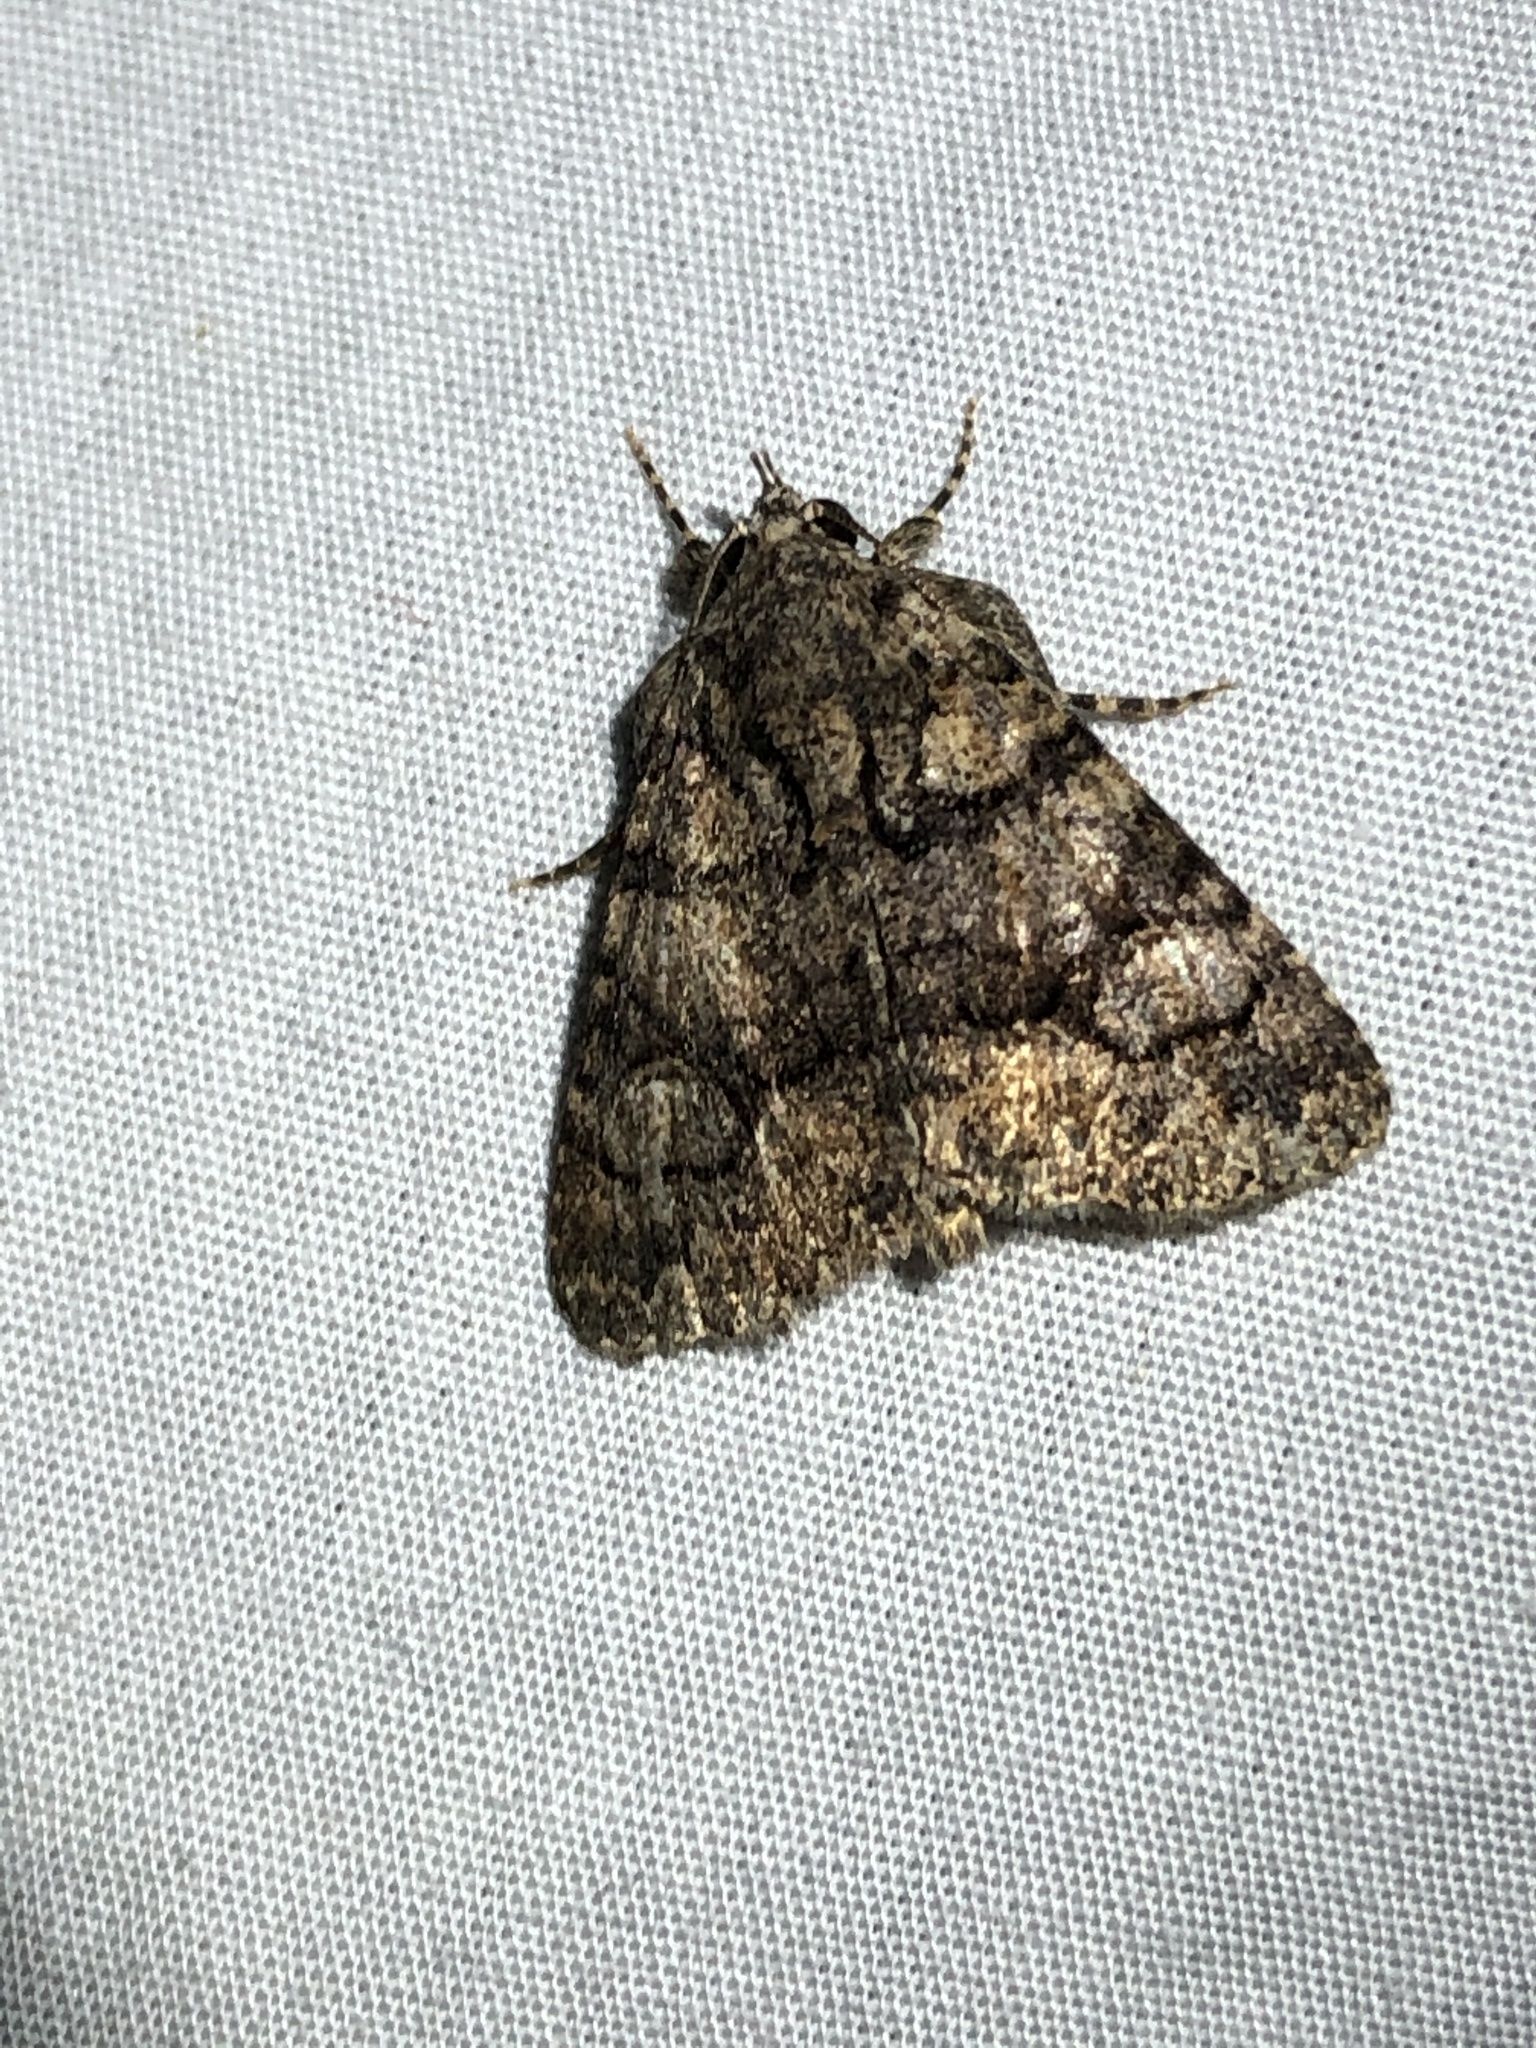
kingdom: Animalia
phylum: Arthropoda
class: Insecta
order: Lepidoptera
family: Erebidae
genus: Elousa
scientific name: Elousa mima
